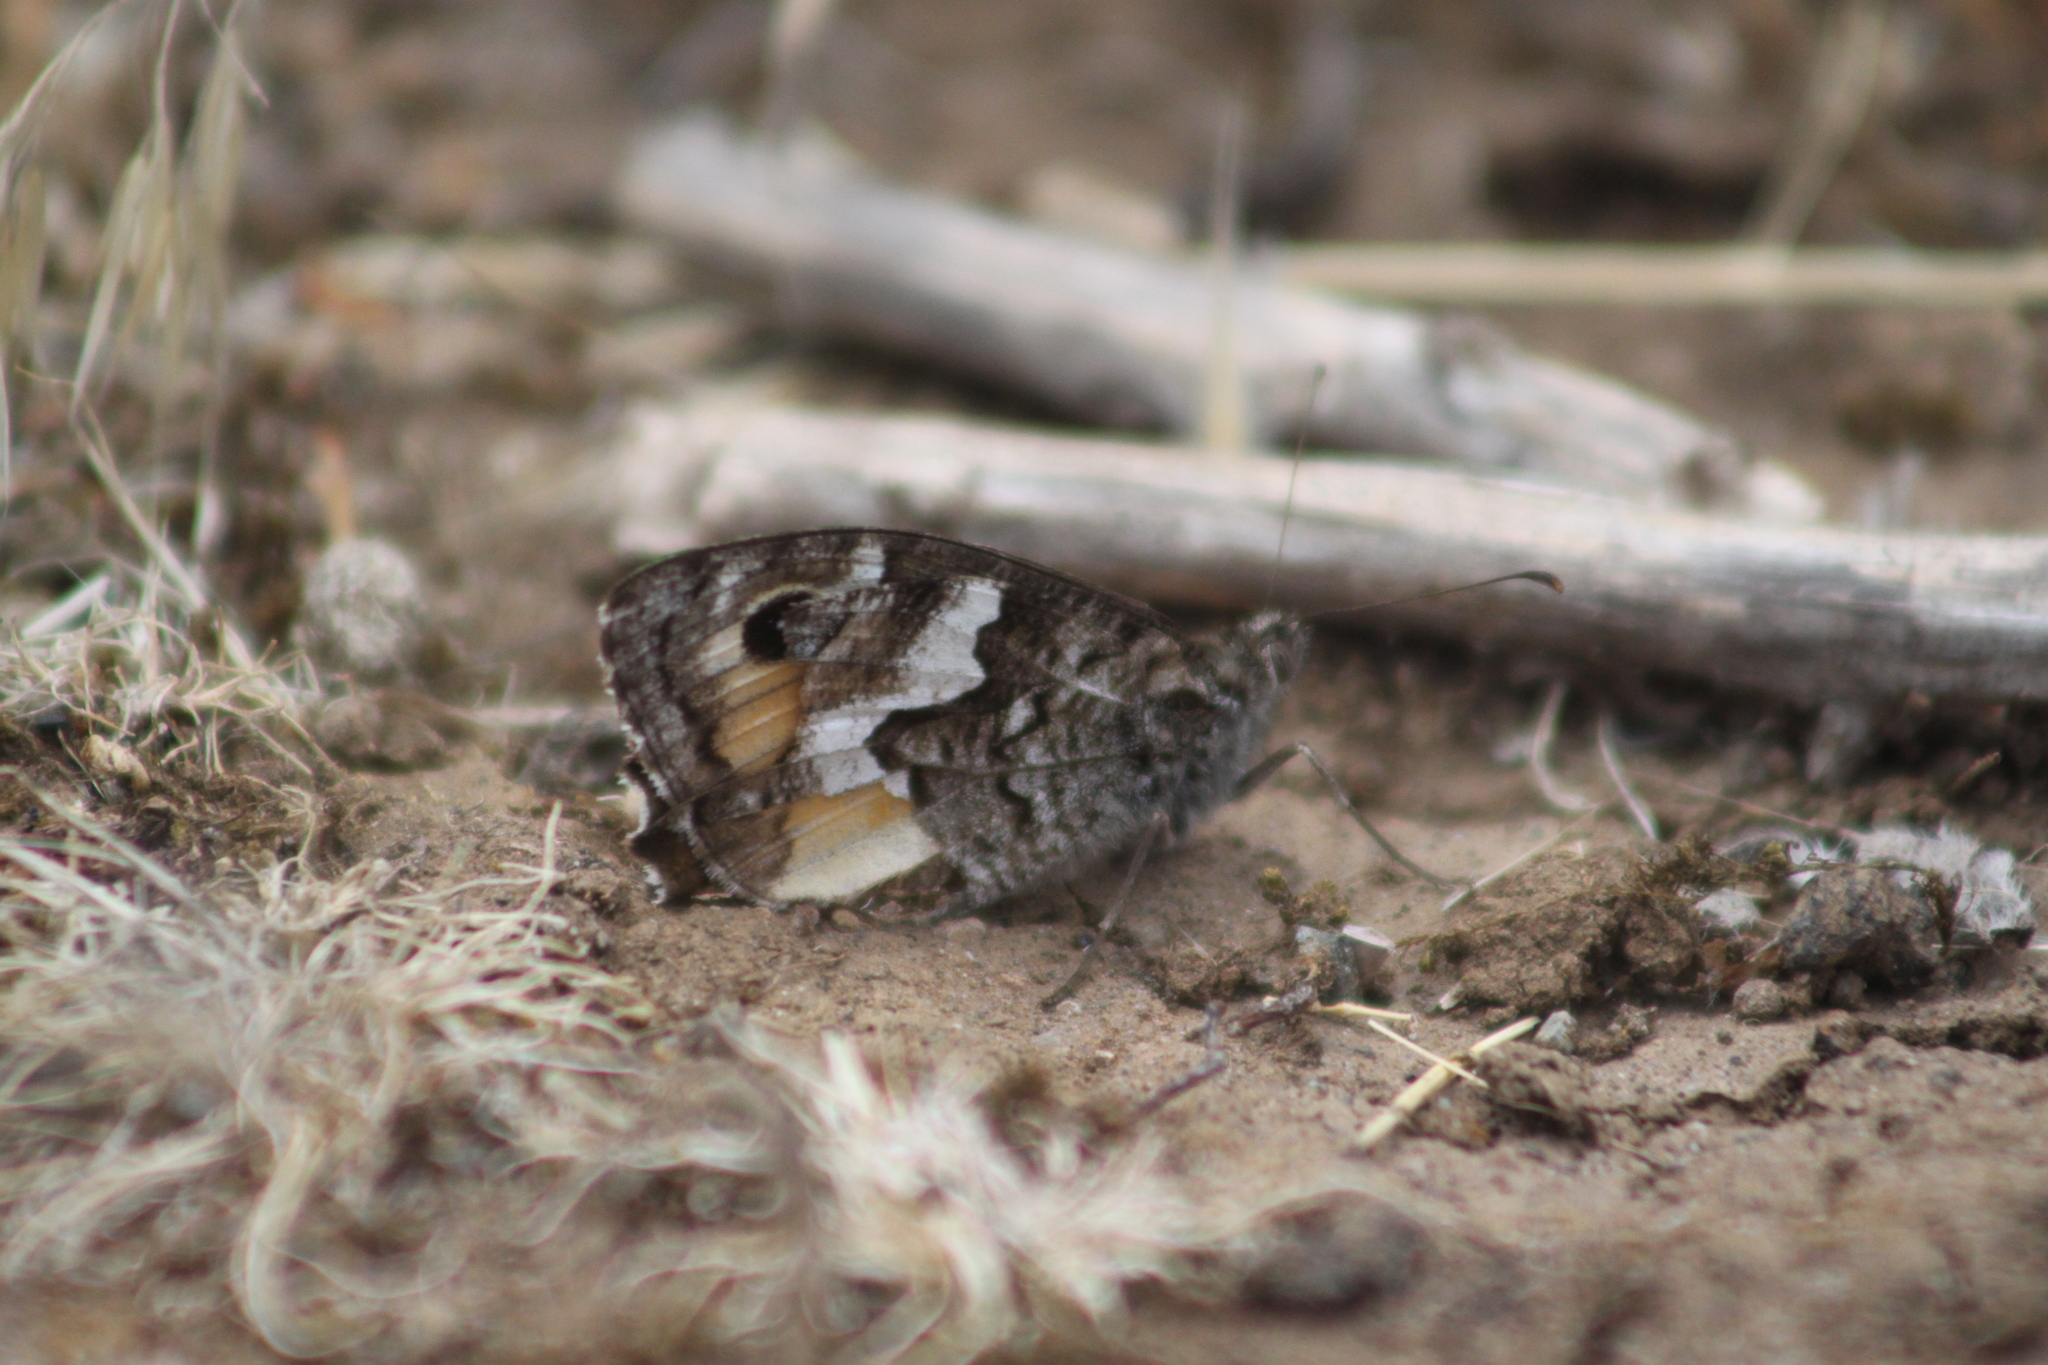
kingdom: Animalia
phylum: Arthropoda
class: Insecta
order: Lepidoptera
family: Nymphalidae
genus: Hipparchia
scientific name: Hipparchia semele
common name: Grayling
